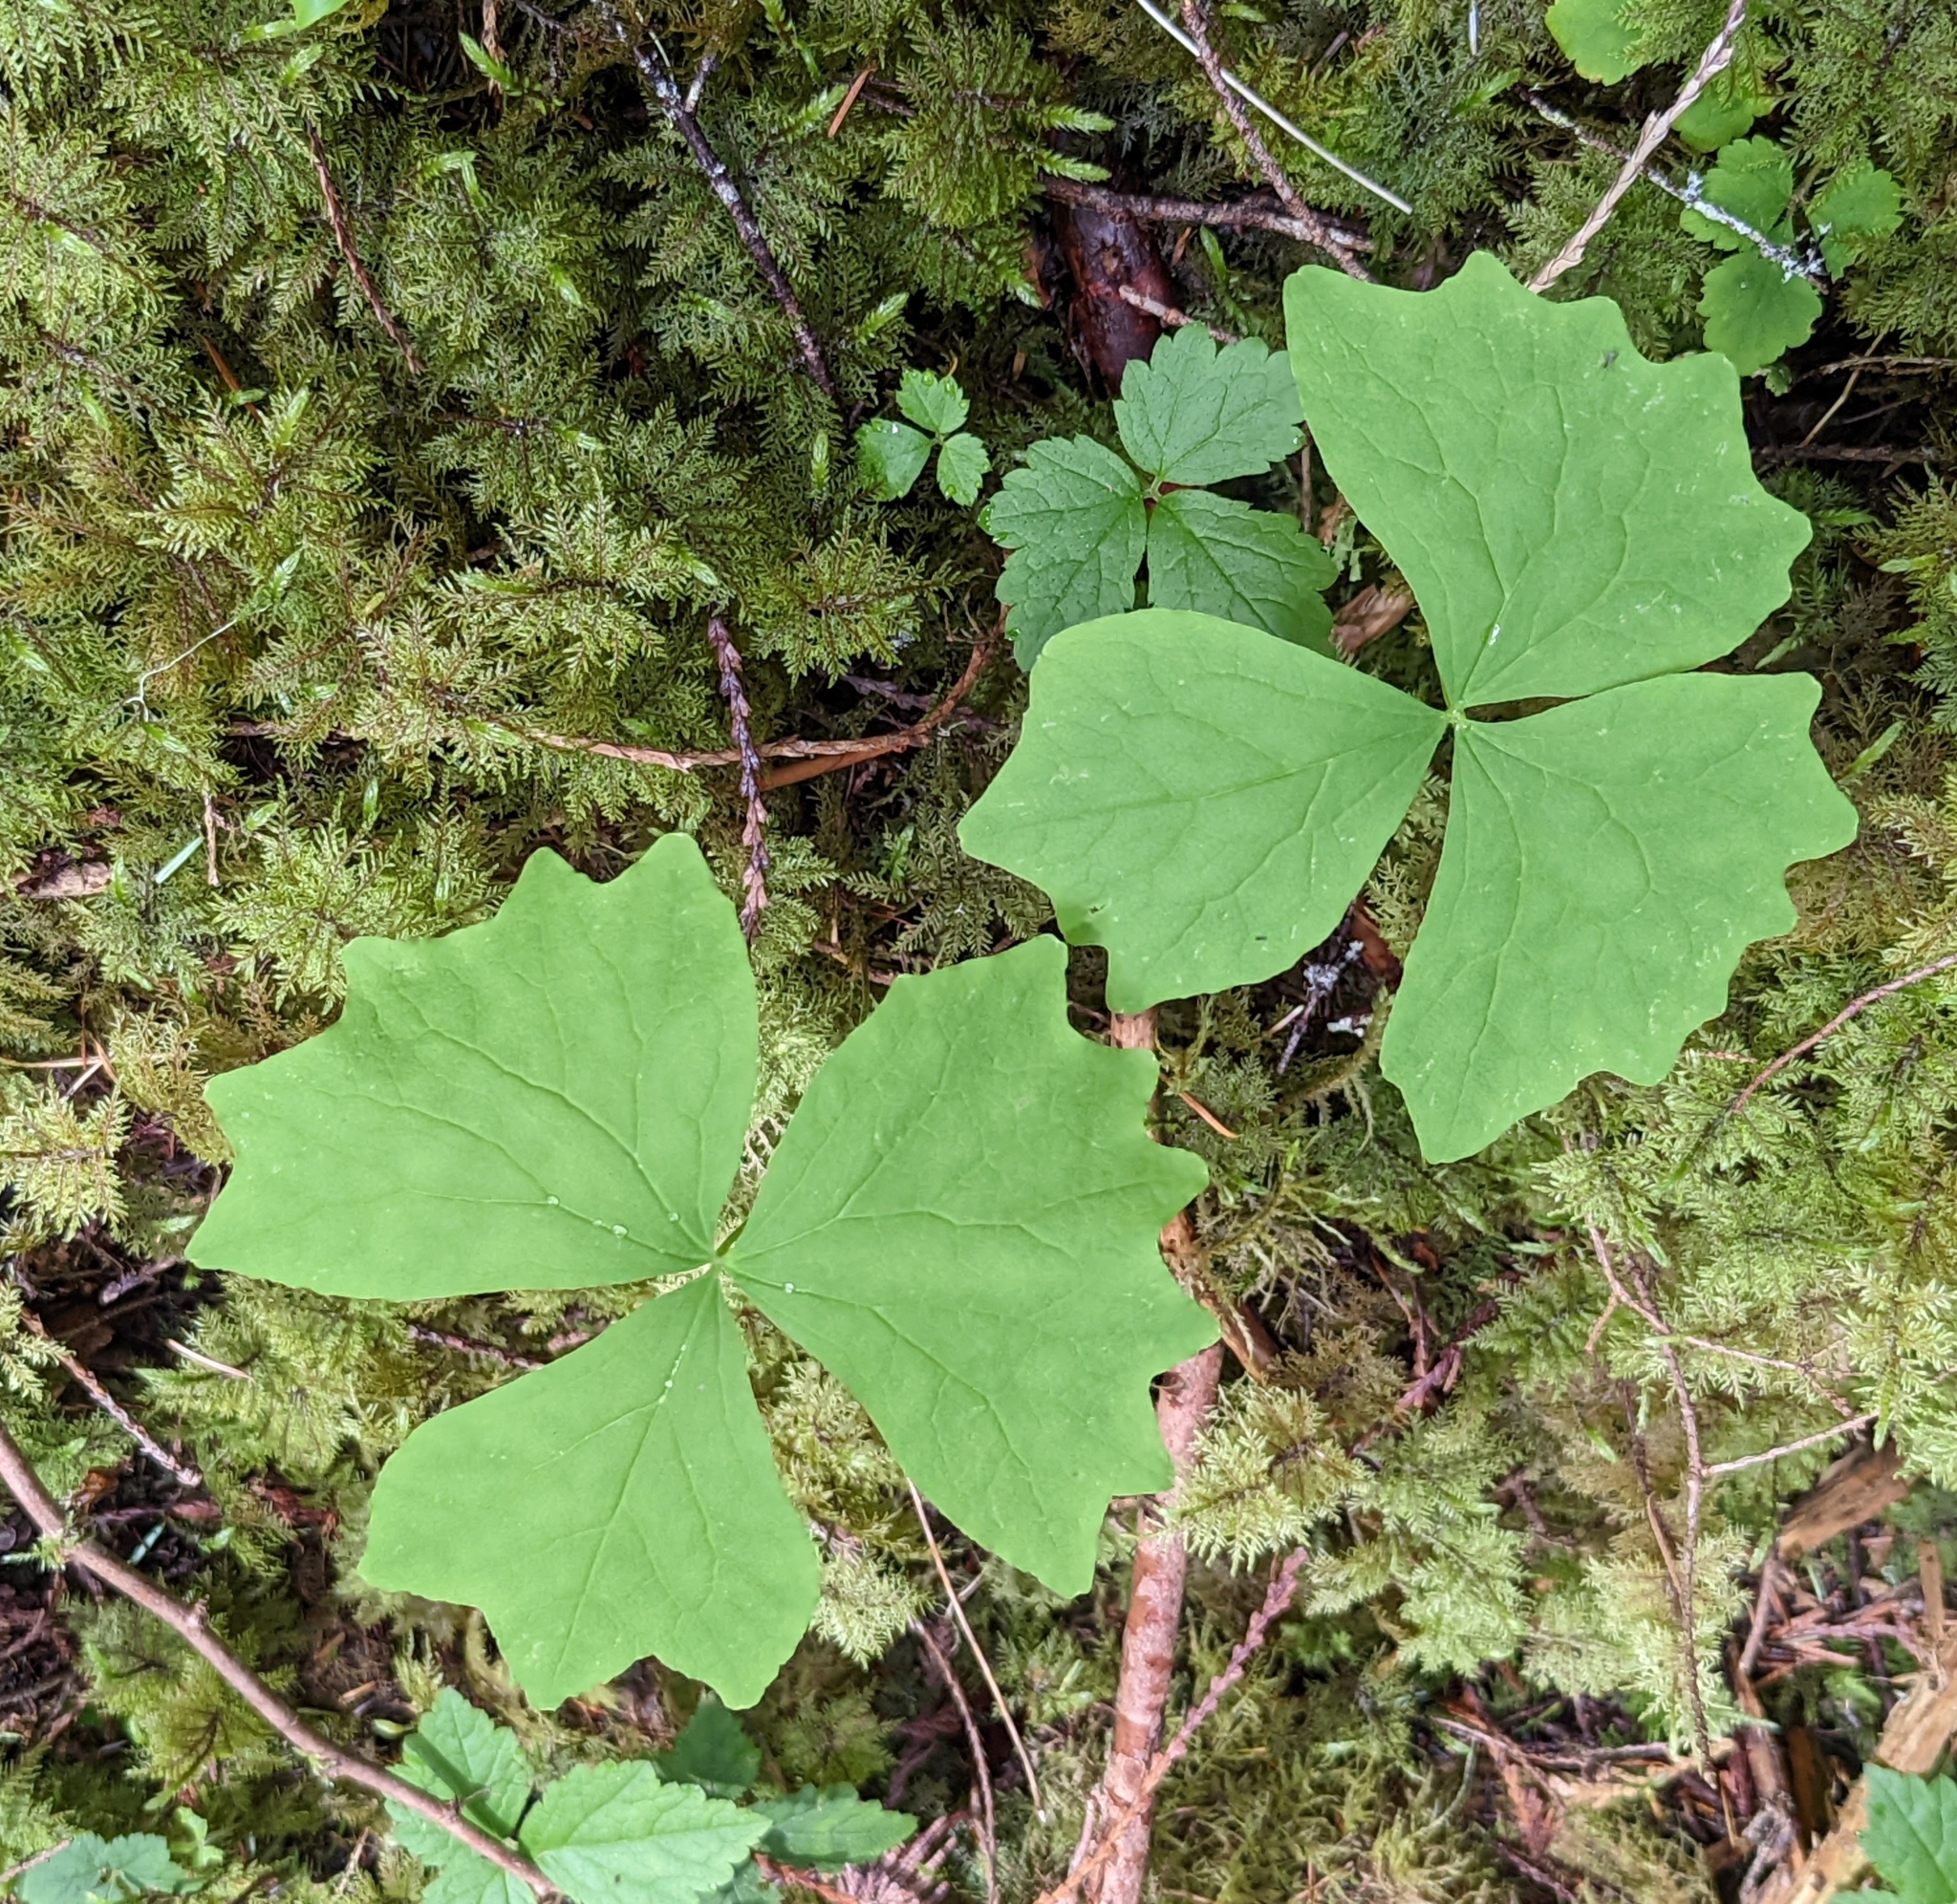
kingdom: Plantae
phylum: Tracheophyta
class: Magnoliopsida
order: Ranunculales
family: Berberidaceae
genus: Achlys
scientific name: Achlys triphylla
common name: Vanilla-leaf
